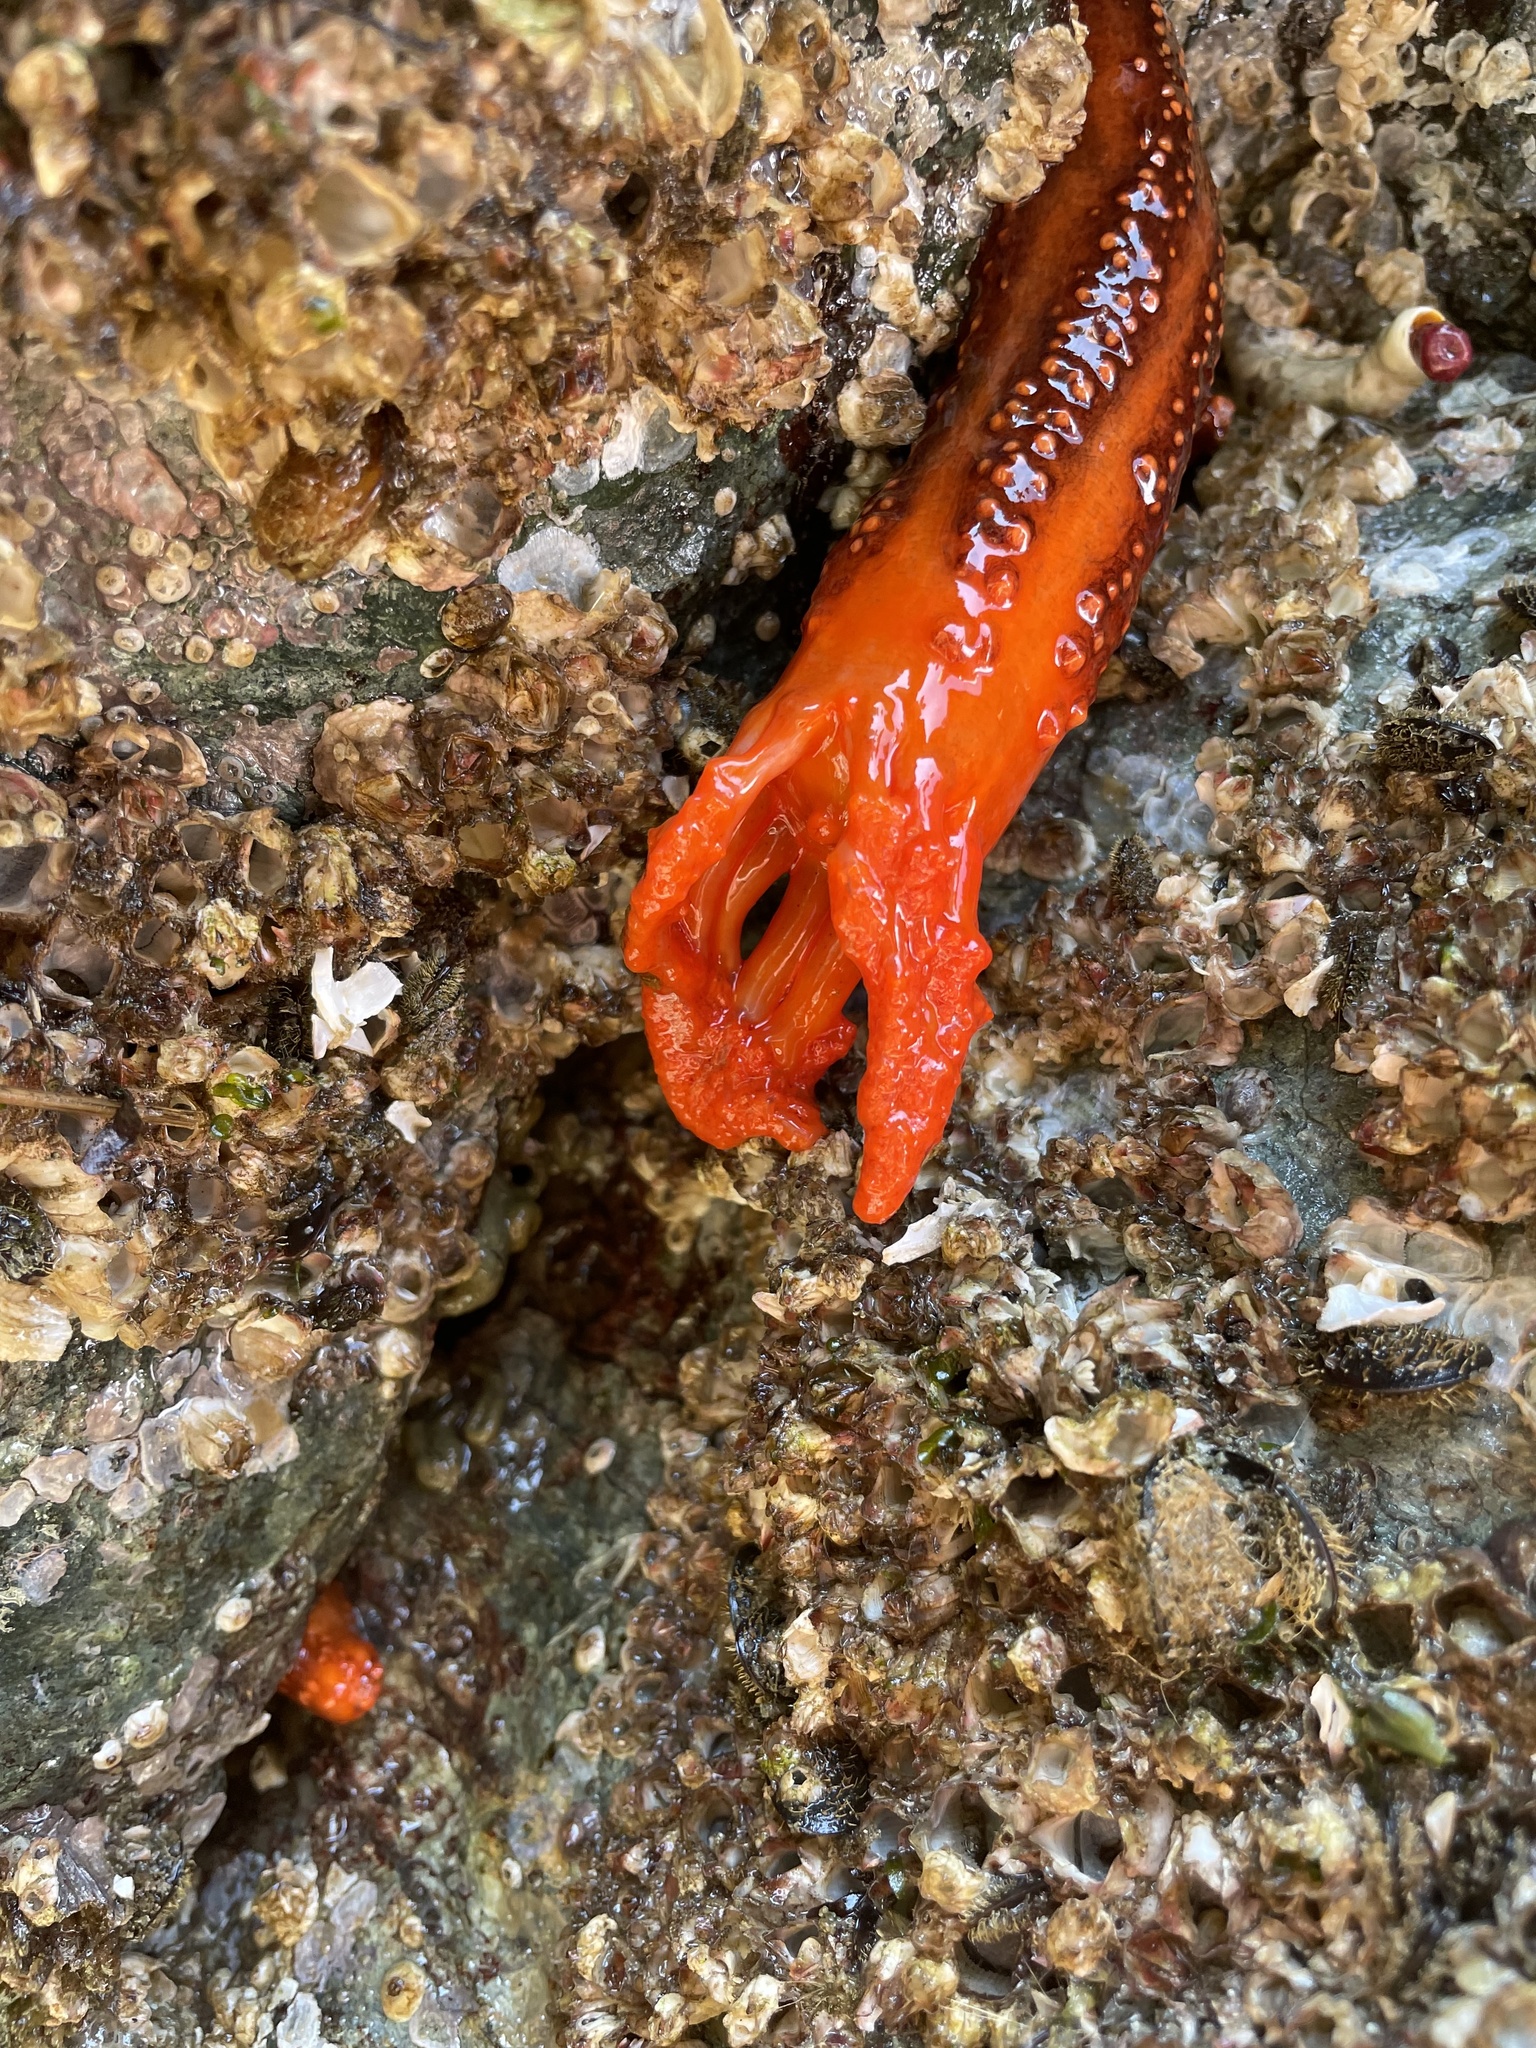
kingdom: Animalia
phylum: Echinodermata
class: Holothuroidea
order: Dendrochirotida
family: Cucumariidae
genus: Cucumaria
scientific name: Cucumaria miniata
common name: Orange sea cucumber
